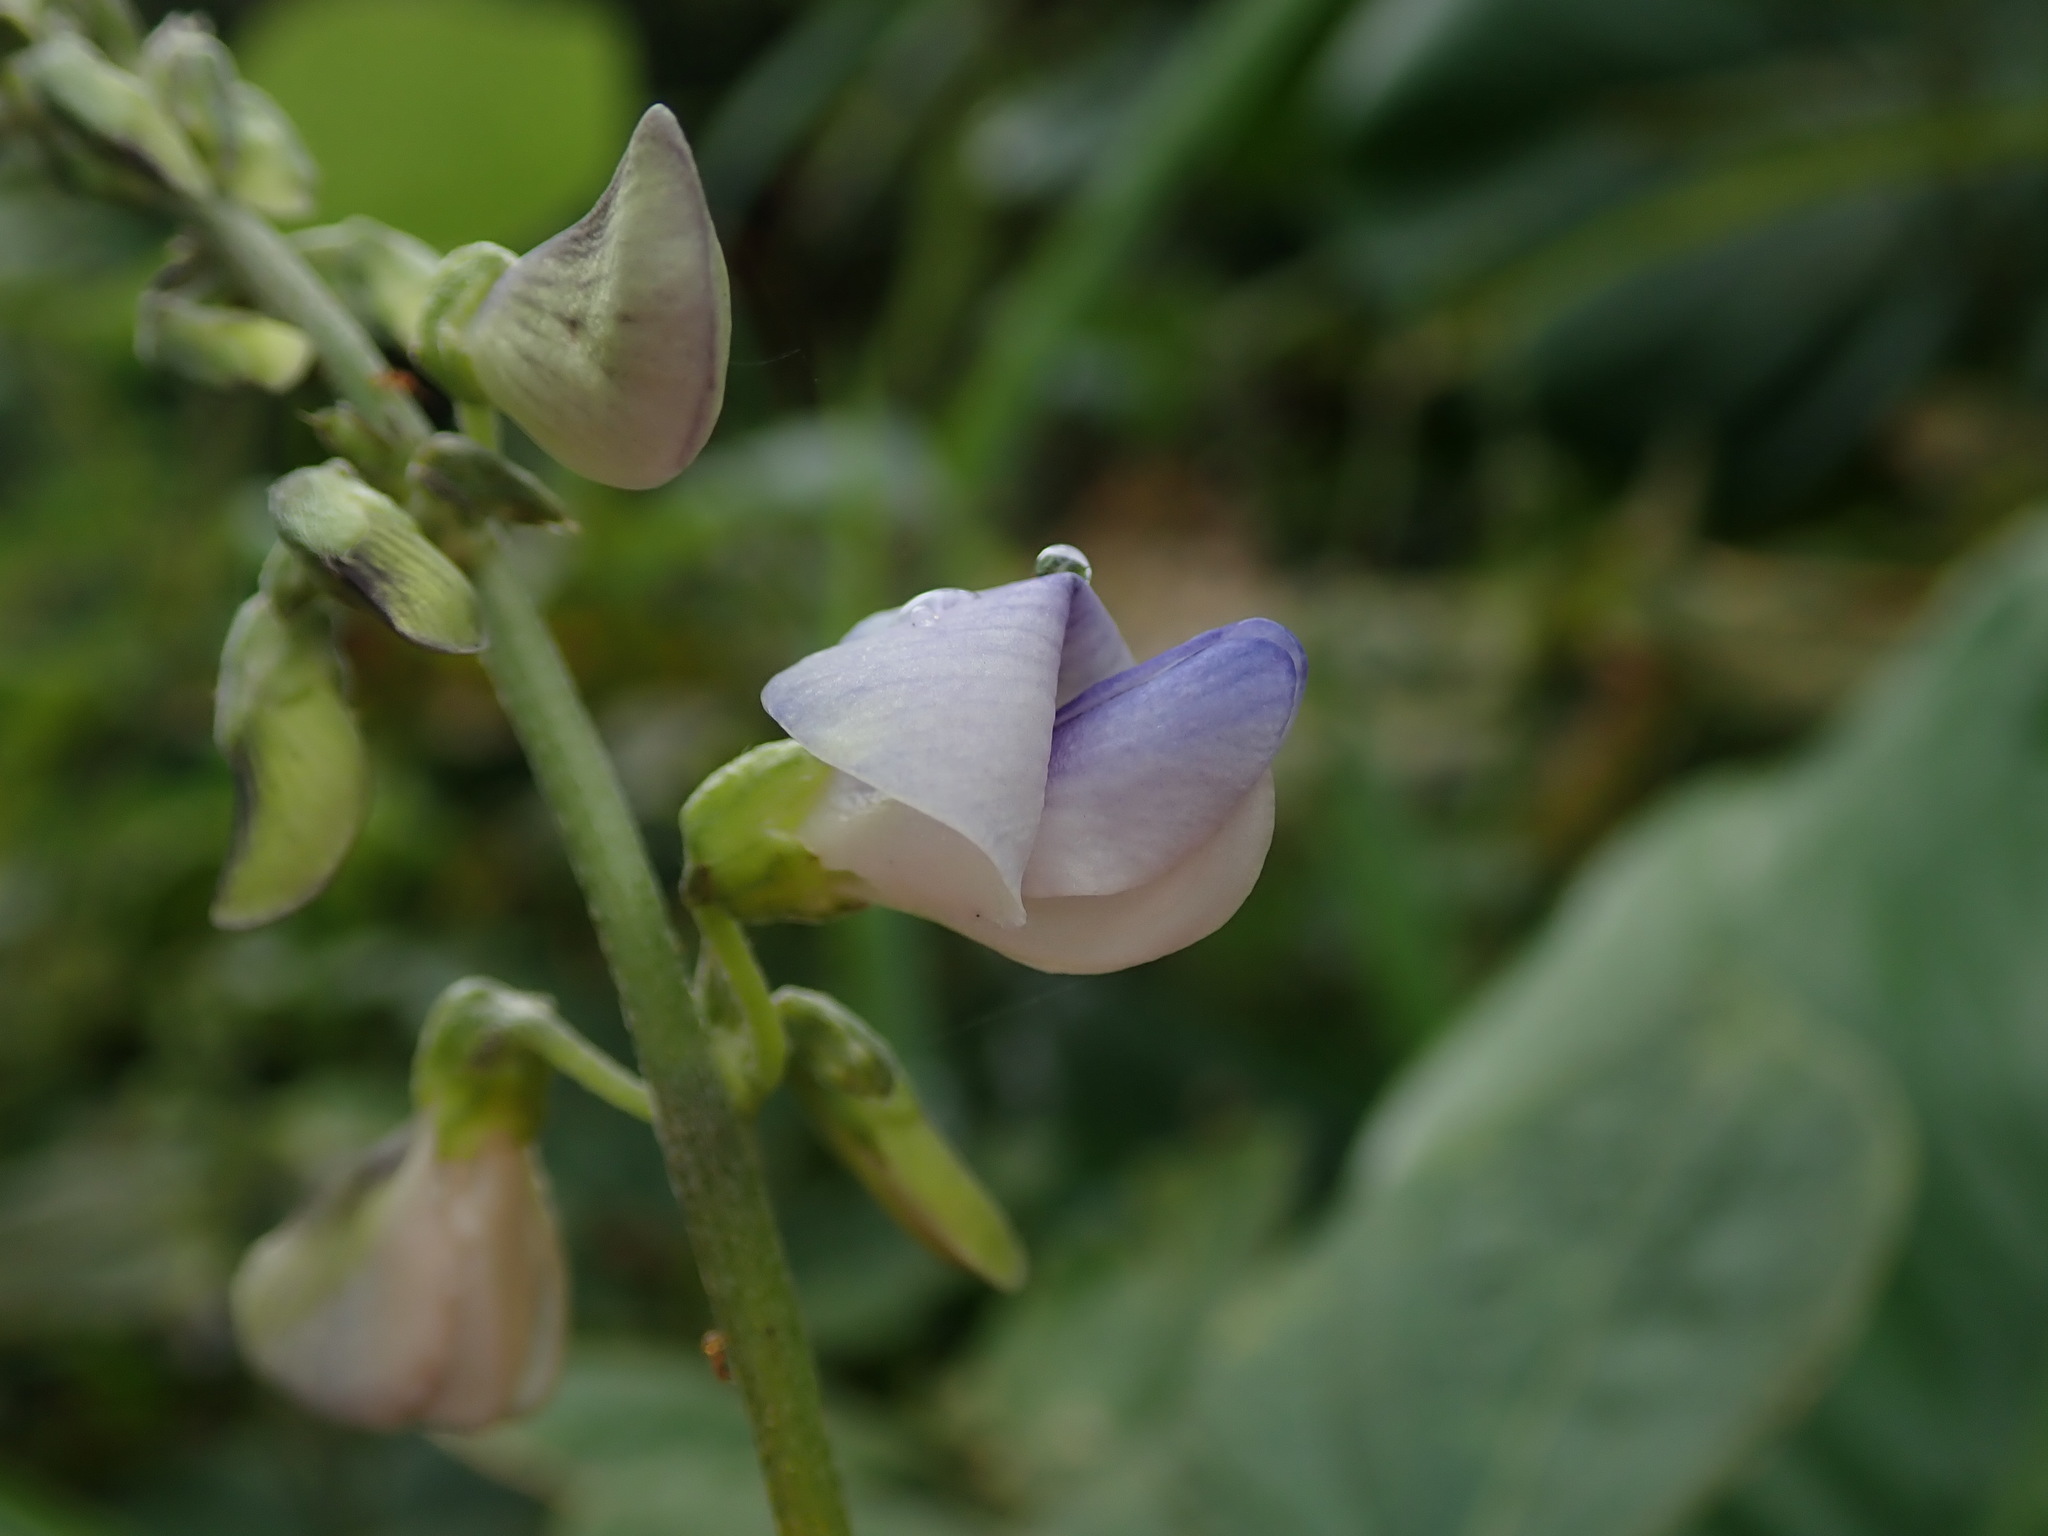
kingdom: Plantae
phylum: Tracheophyta
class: Magnoliopsida
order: Fabales
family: Fabaceae
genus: Neustanthus
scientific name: Neustanthus phaseoloides
